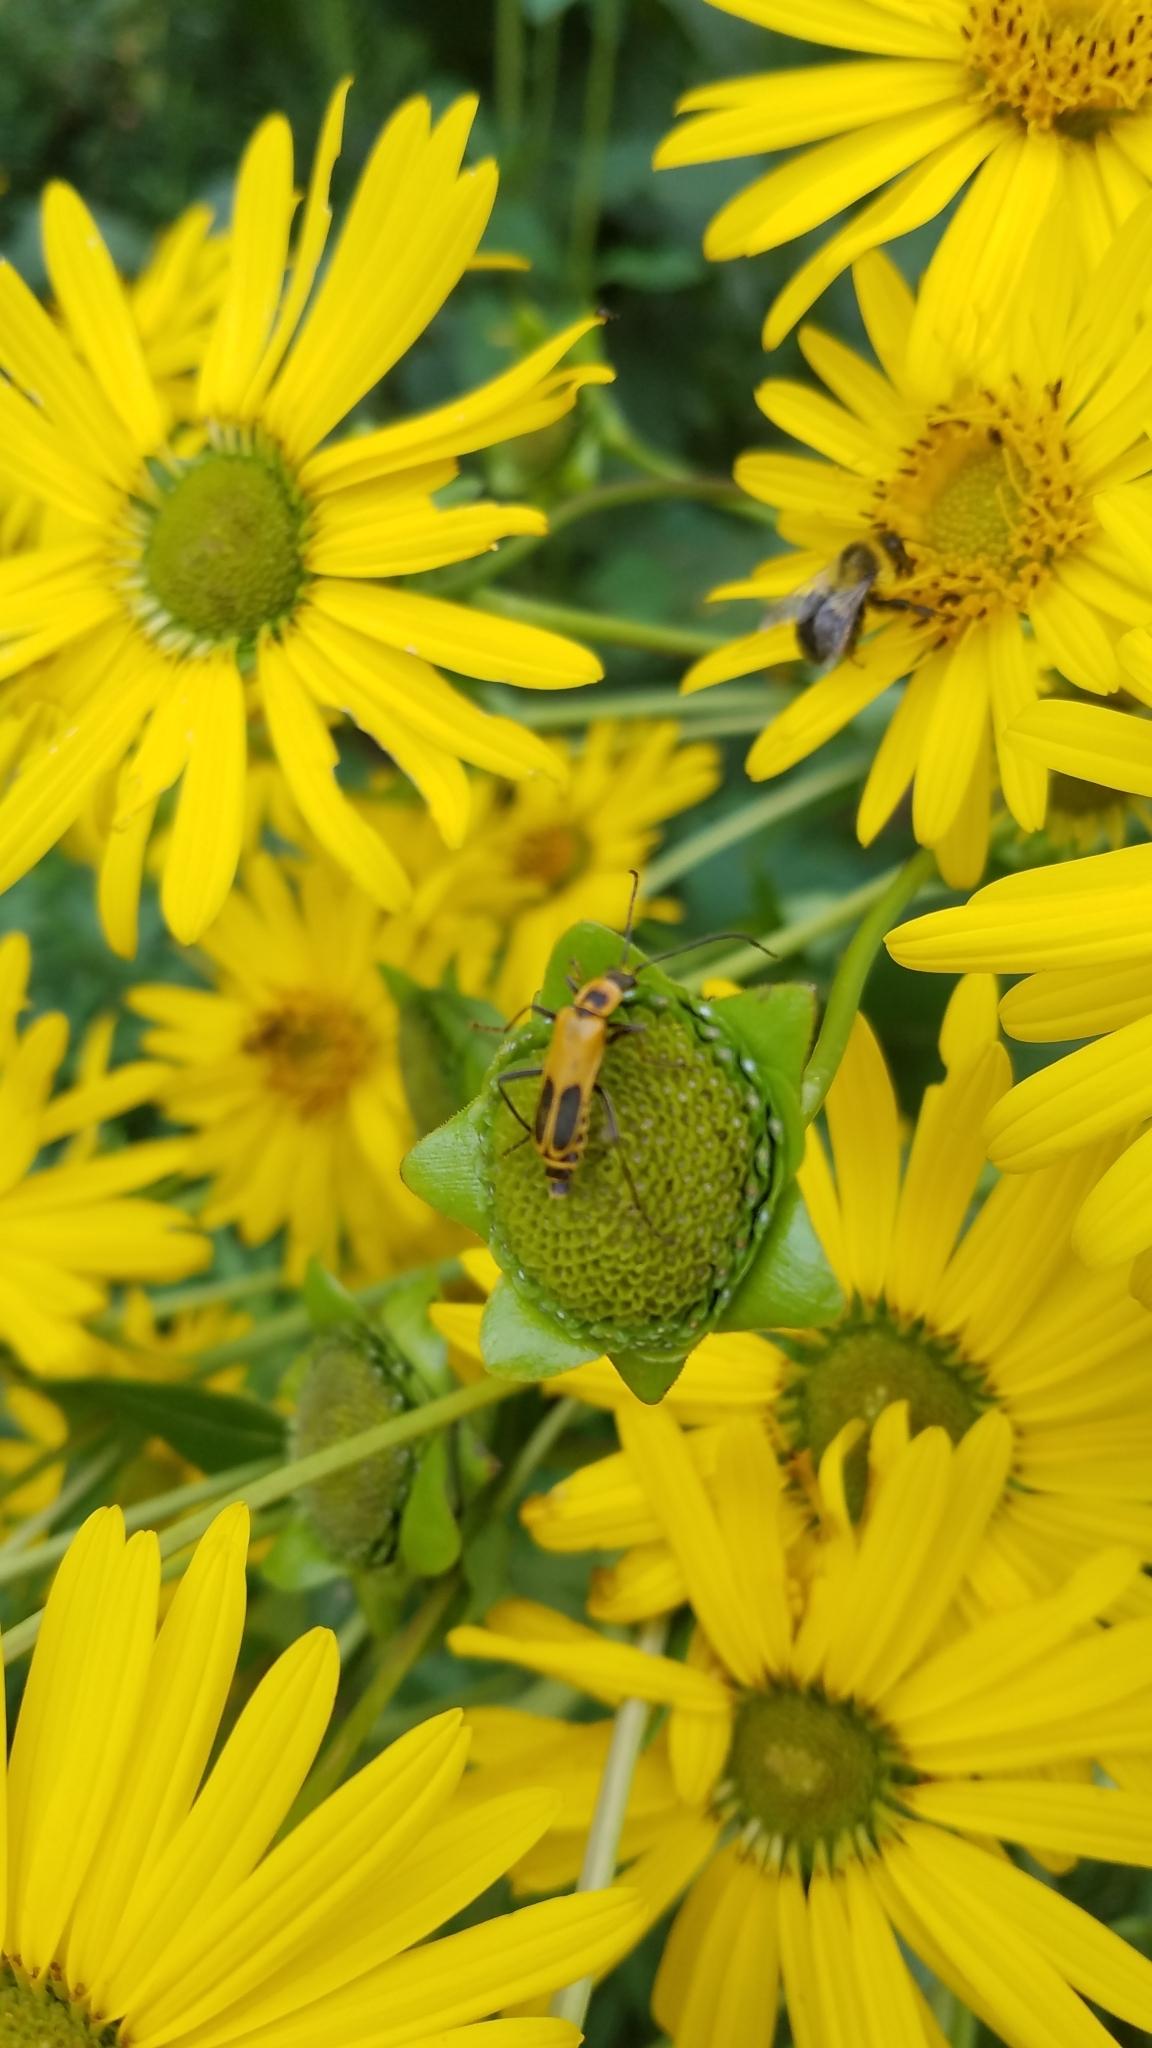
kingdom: Animalia
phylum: Arthropoda
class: Insecta
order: Coleoptera
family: Cantharidae
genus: Chauliognathus
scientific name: Chauliognathus pensylvanicus
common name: Goldenrod soldier beetle
